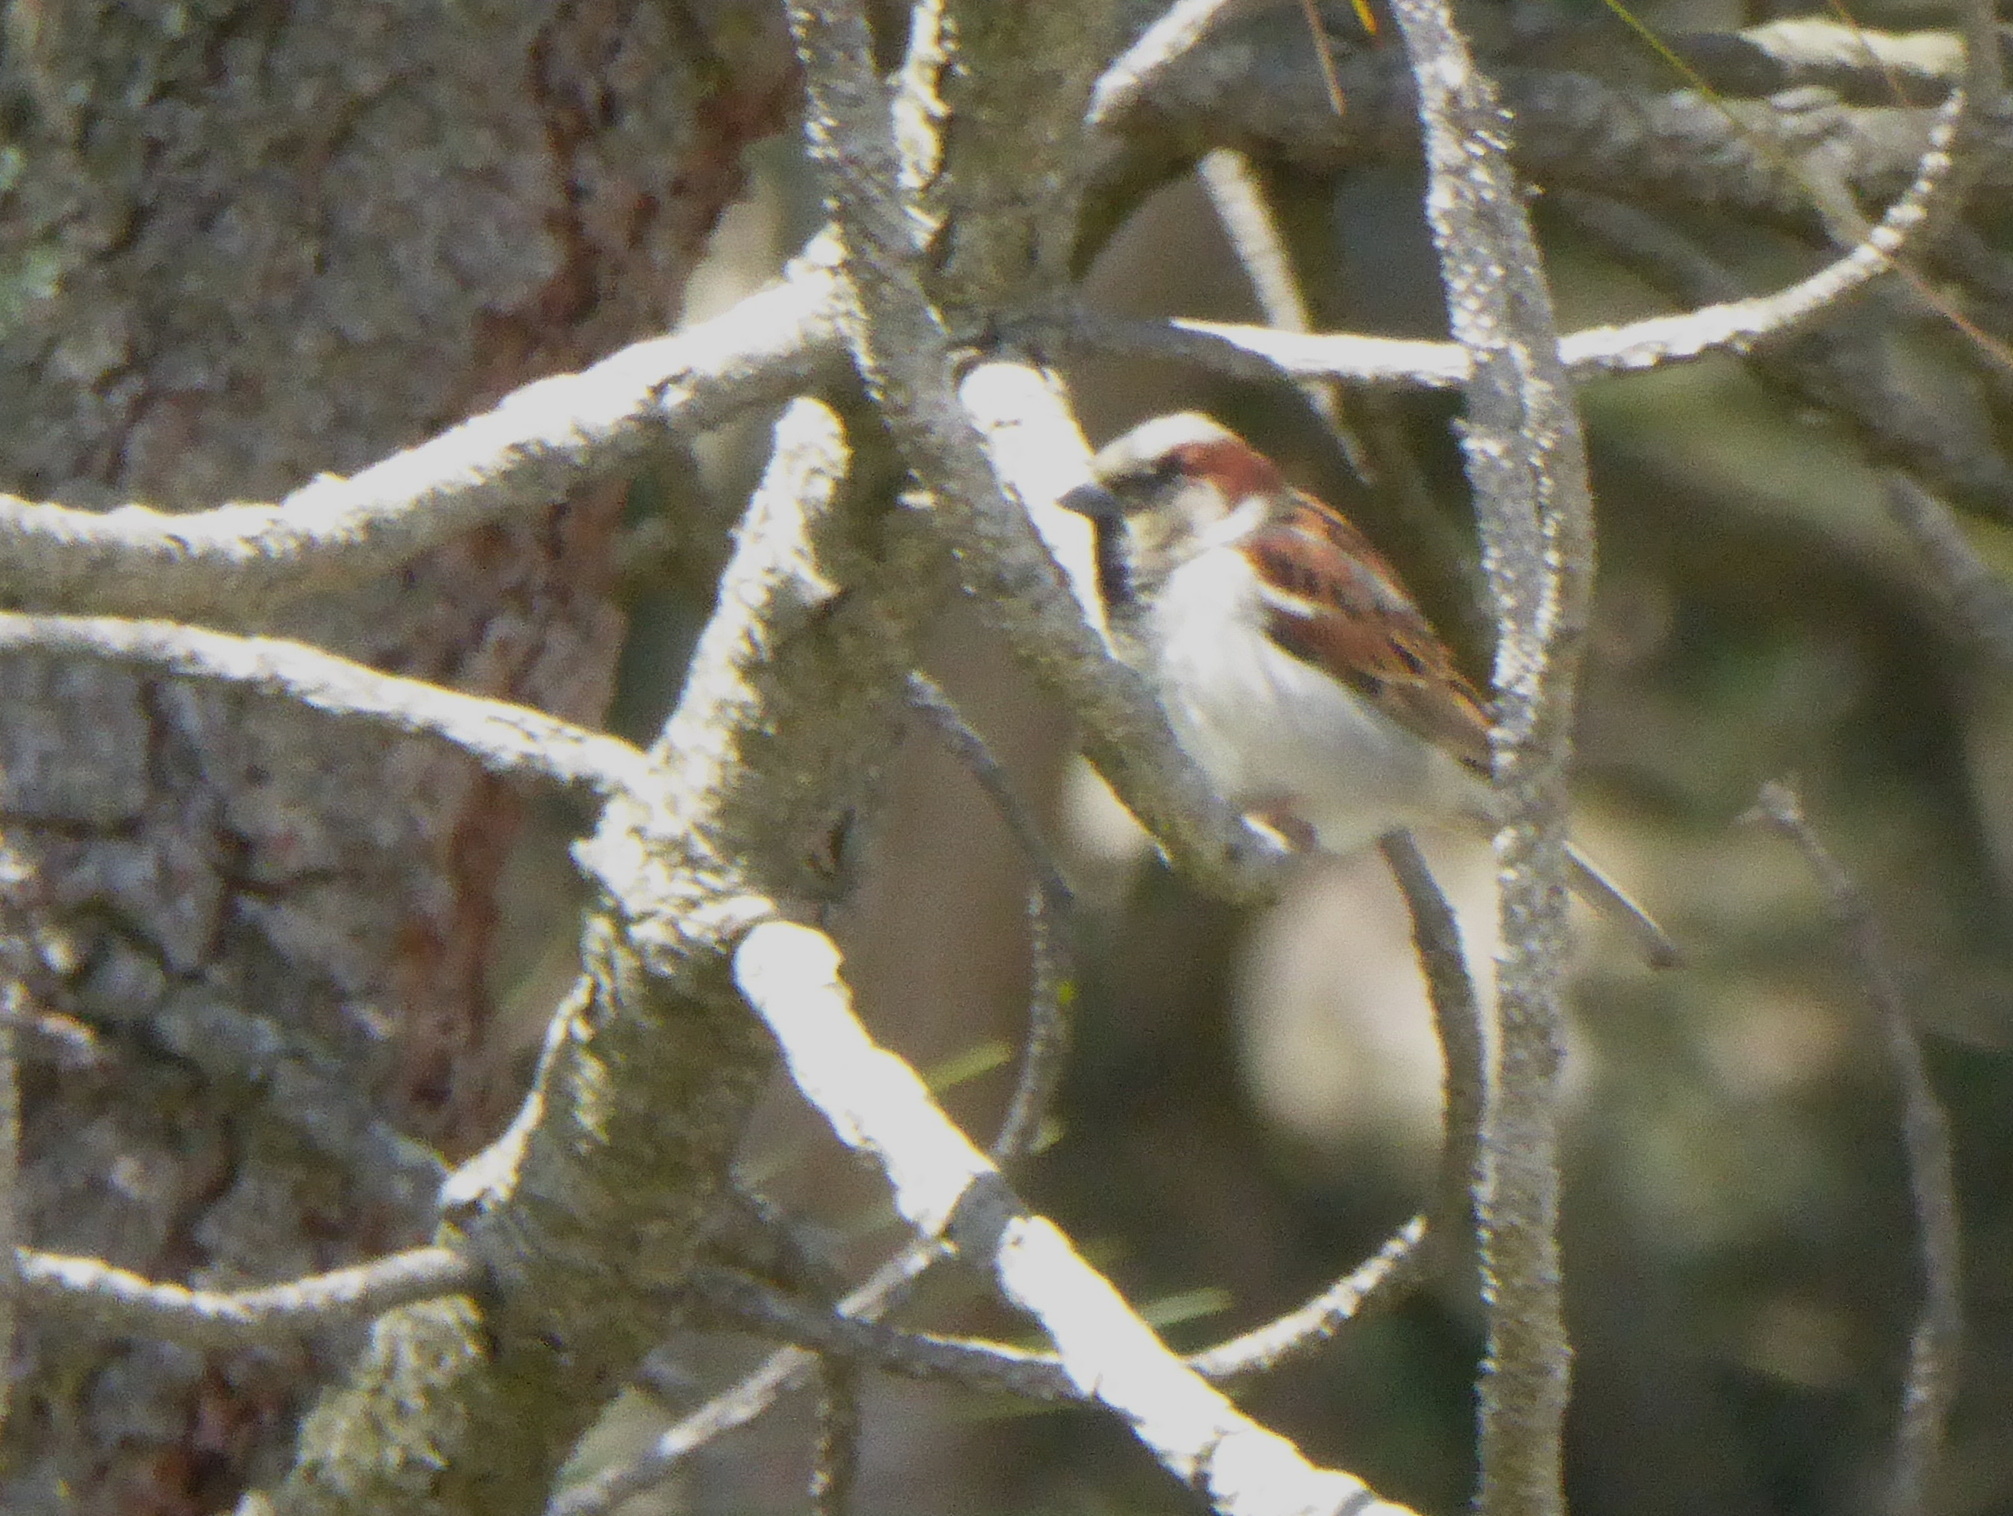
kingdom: Animalia
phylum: Chordata
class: Aves
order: Passeriformes
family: Passeridae
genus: Passer
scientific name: Passer domesticus
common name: House sparrow
